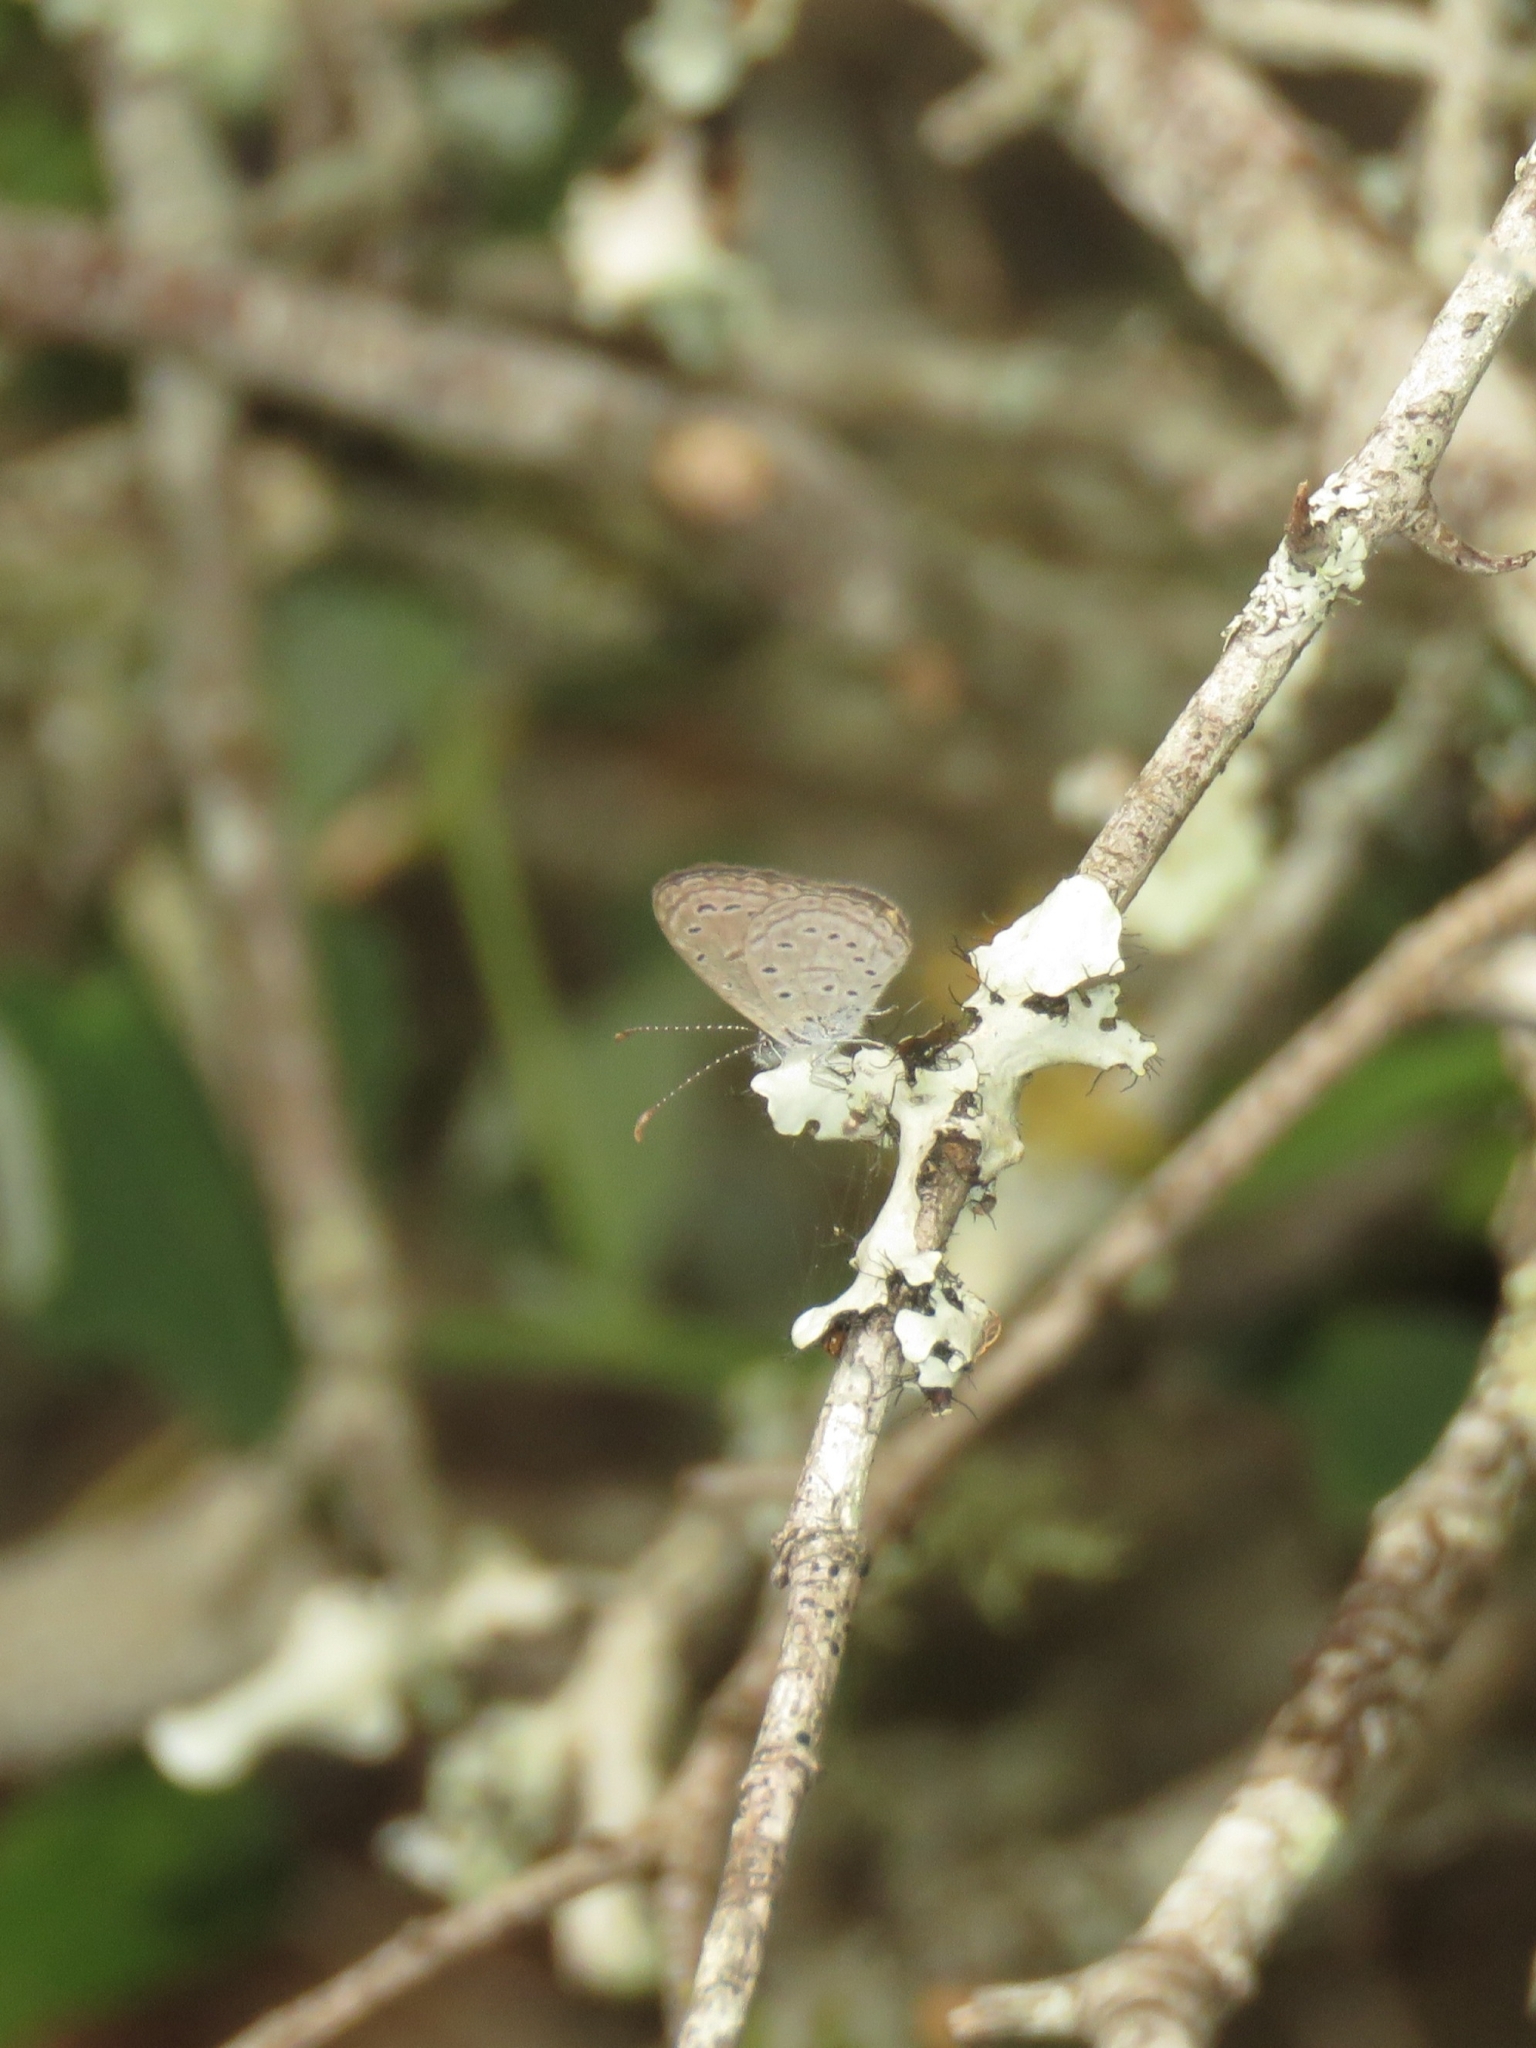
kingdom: Animalia
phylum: Arthropoda
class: Insecta
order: Lepidoptera
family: Lycaenidae
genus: Zizula
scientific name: Zizula hylax
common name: Gaika blue
